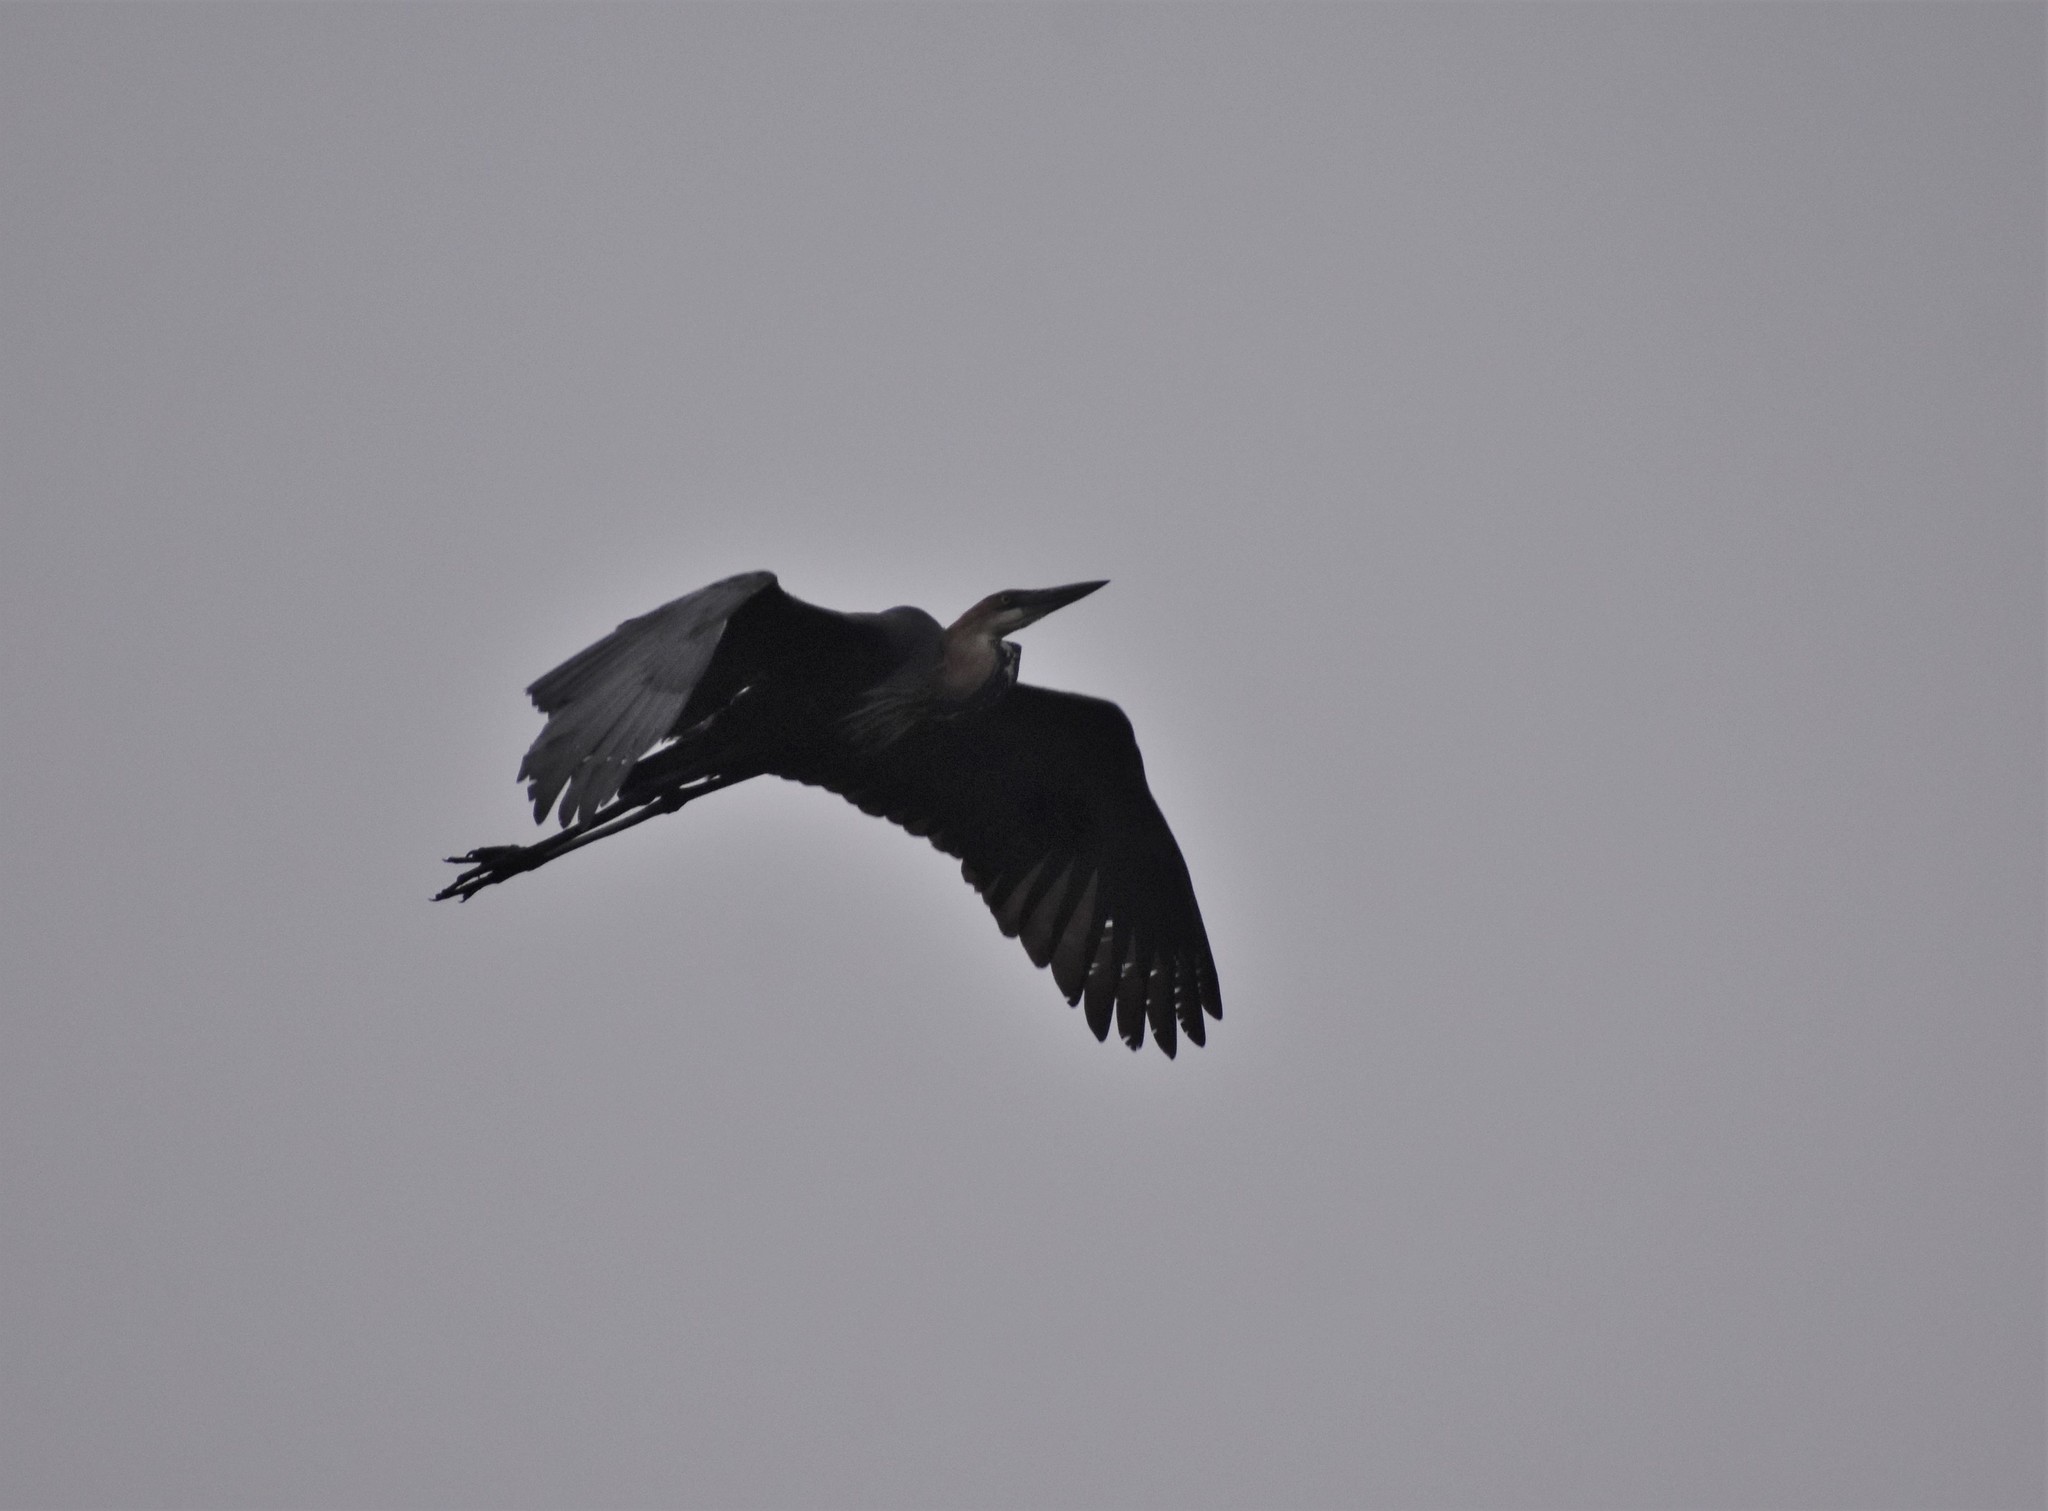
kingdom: Animalia
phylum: Chordata
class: Aves
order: Pelecaniformes
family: Ardeidae
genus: Ardea
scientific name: Ardea goliath
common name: Goliath heron
